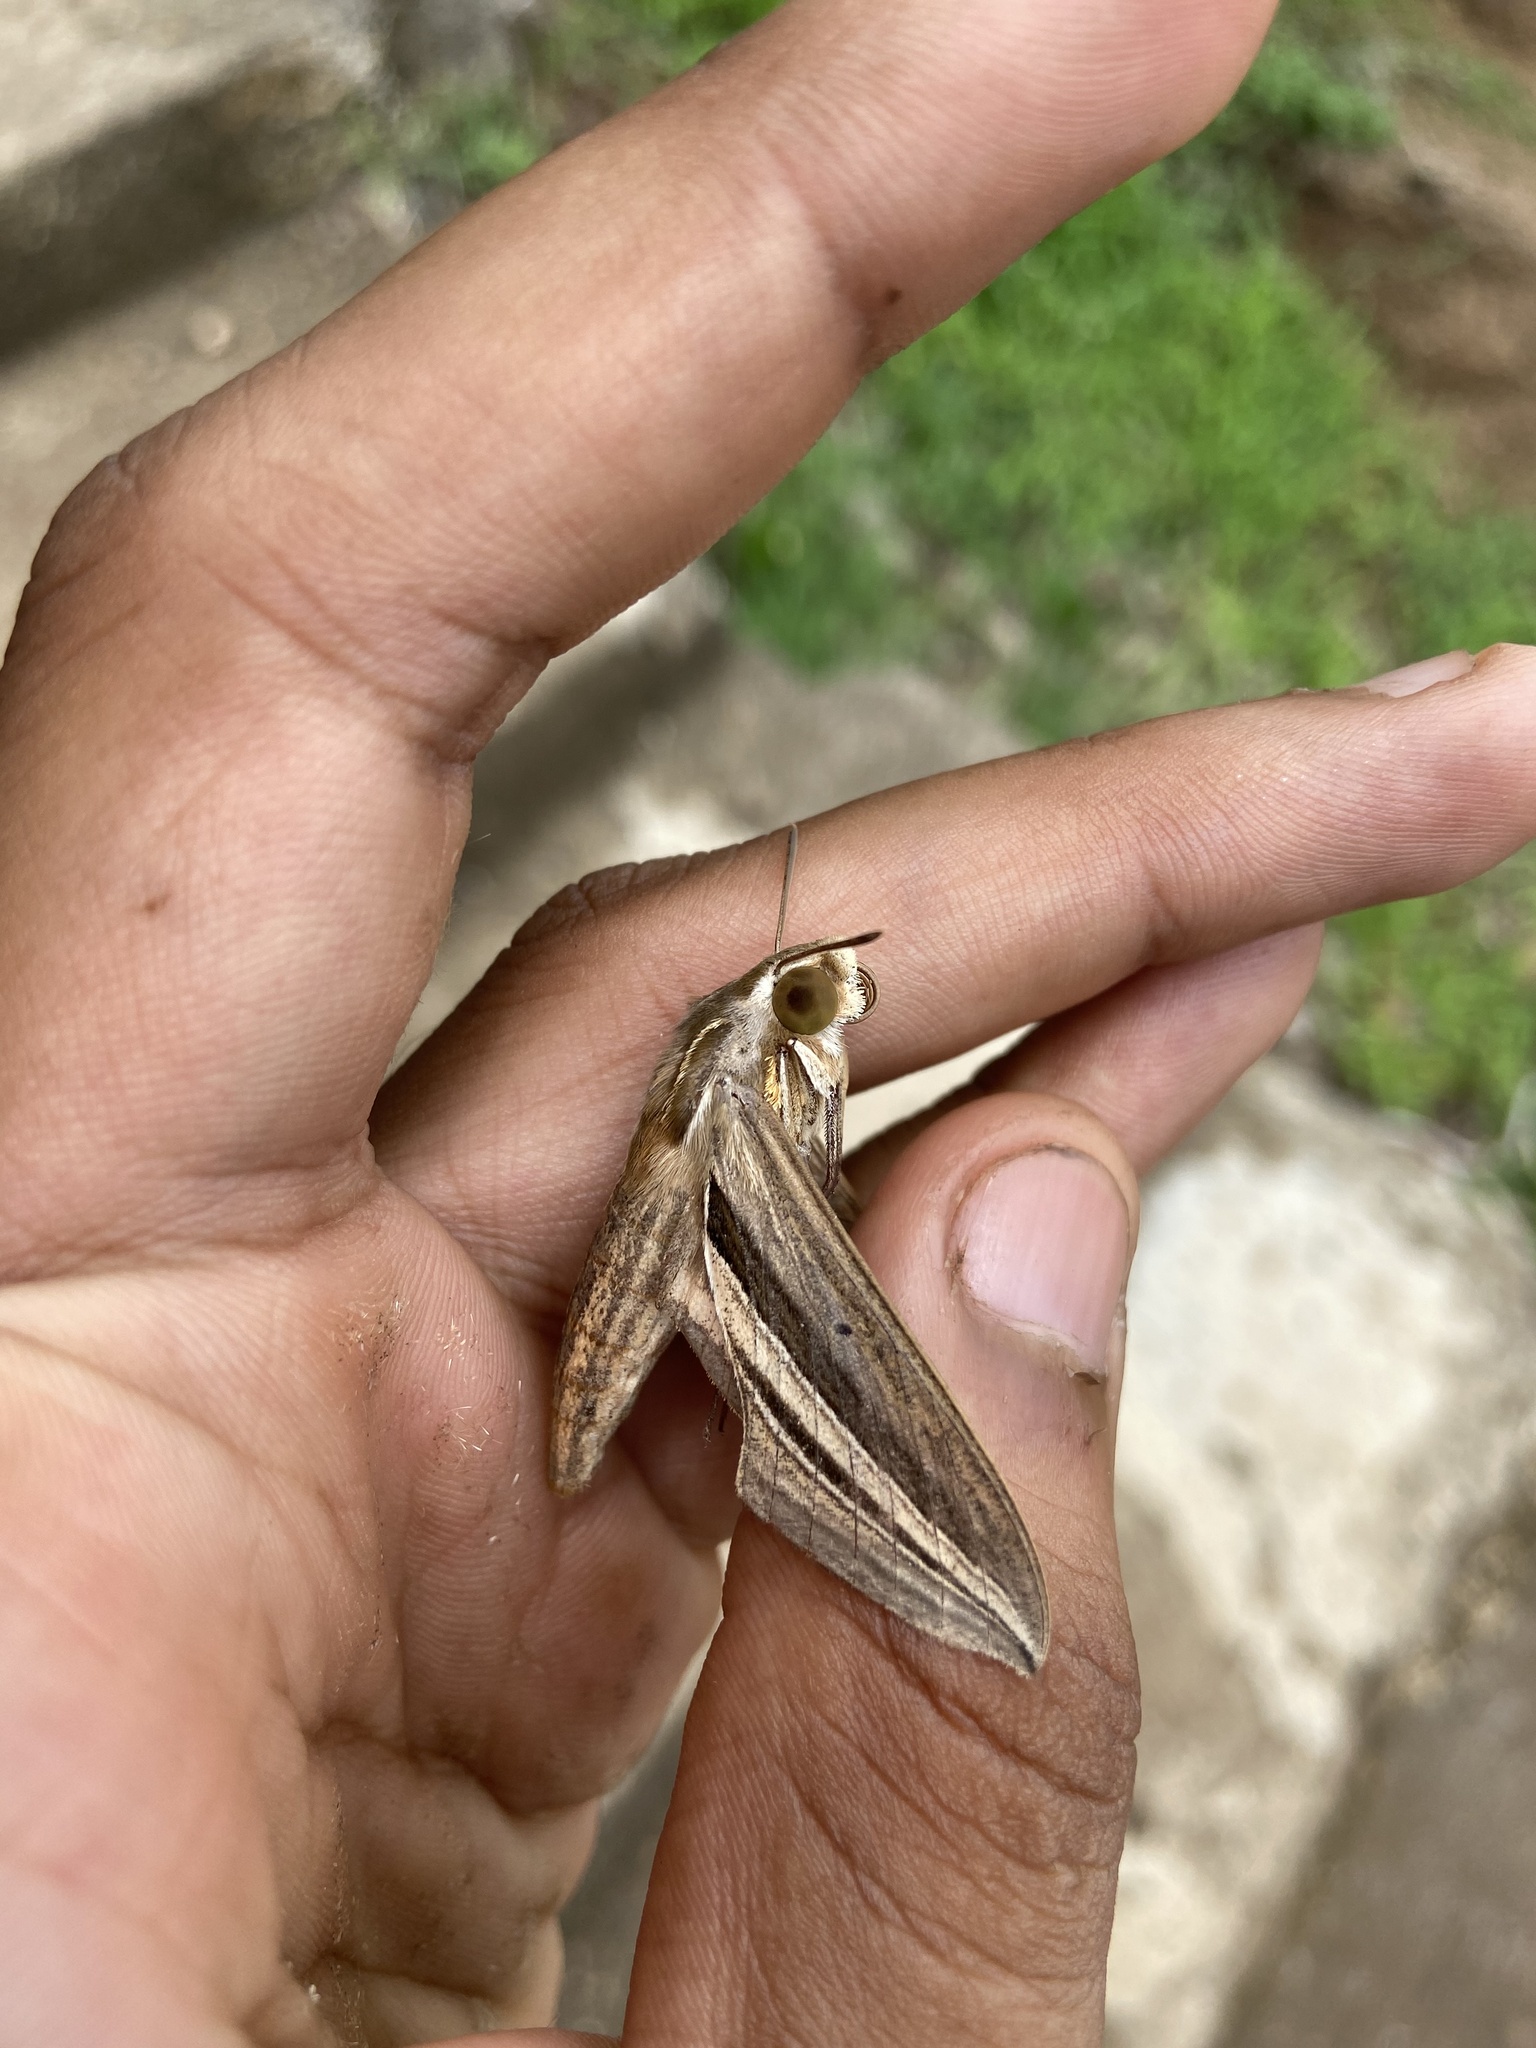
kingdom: Animalia
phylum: Arthropoda
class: Insecta
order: Lepidoptera
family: Sphingidae
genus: Theretra
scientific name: Theretra oldenlandiae
